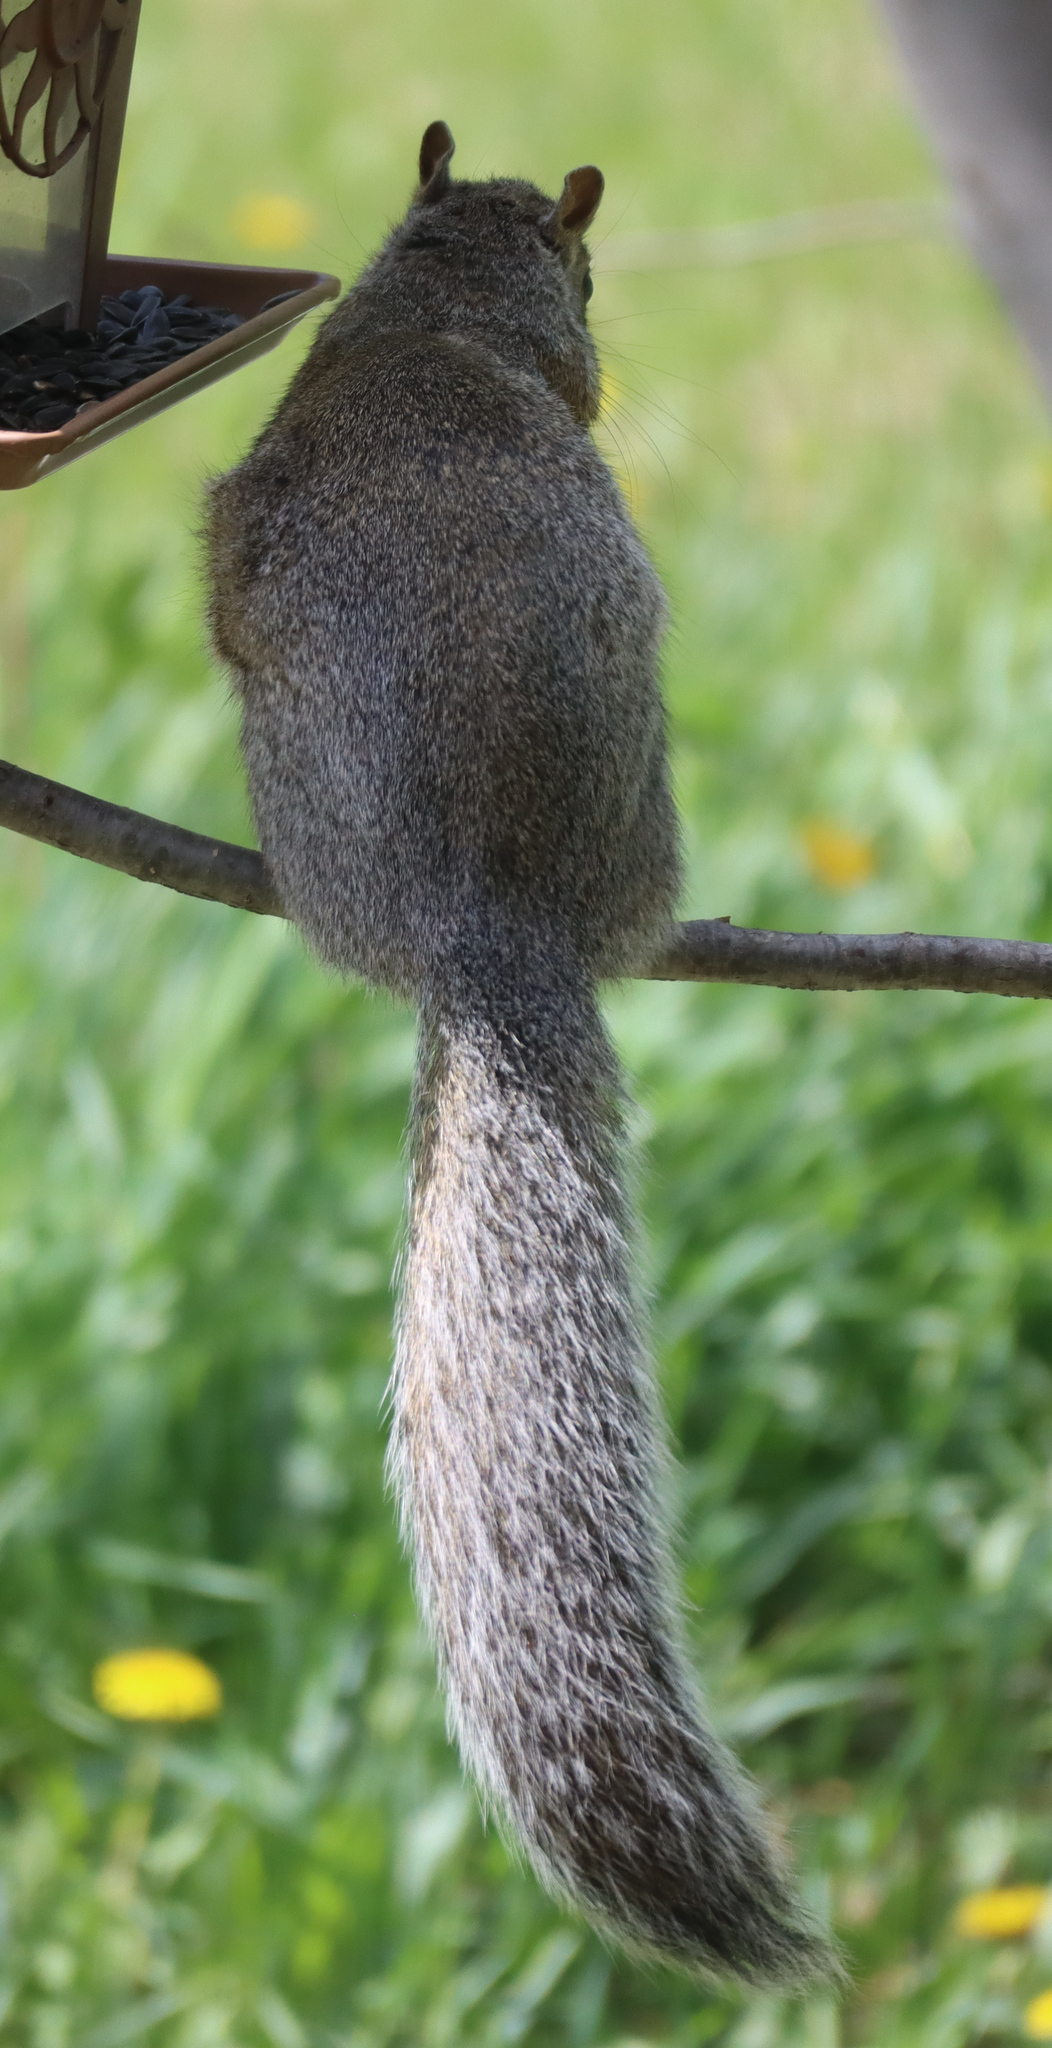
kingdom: Animalia
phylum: Chordata
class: Mammalia
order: Rodentia
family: Sciuridae
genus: Sciurus
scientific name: Sciurus carolinensis
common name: Eastern gray squirrel
